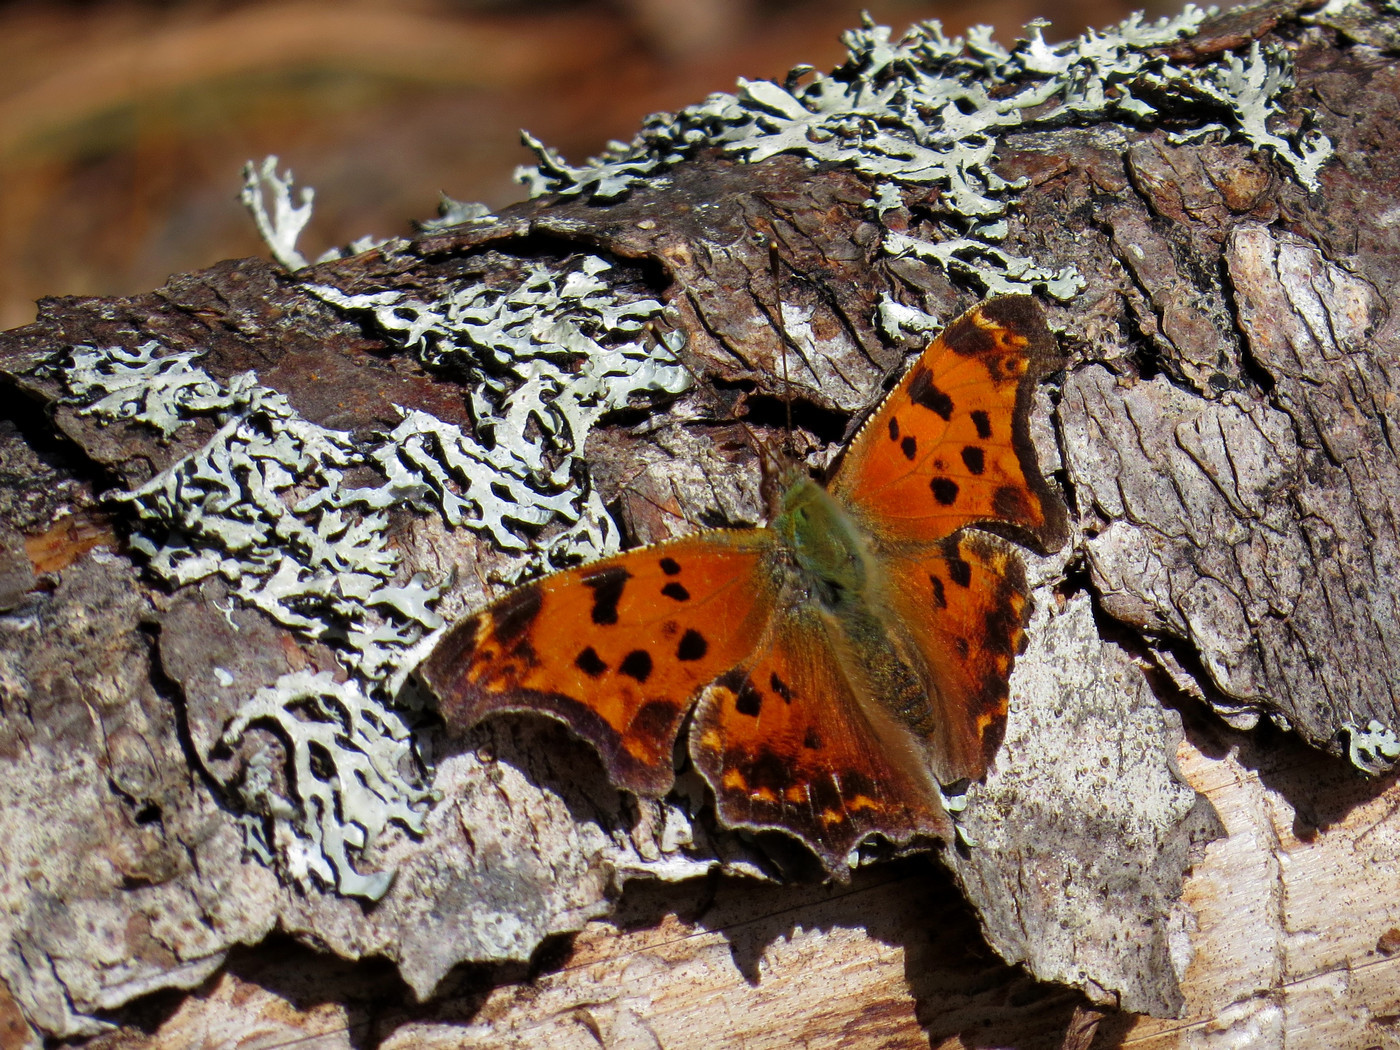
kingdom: Animalia
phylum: Arthropoda
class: Insecta
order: Lepidoptera
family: Nymphalidae
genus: Polygonia
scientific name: Polygonia comma
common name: Eastern comma
